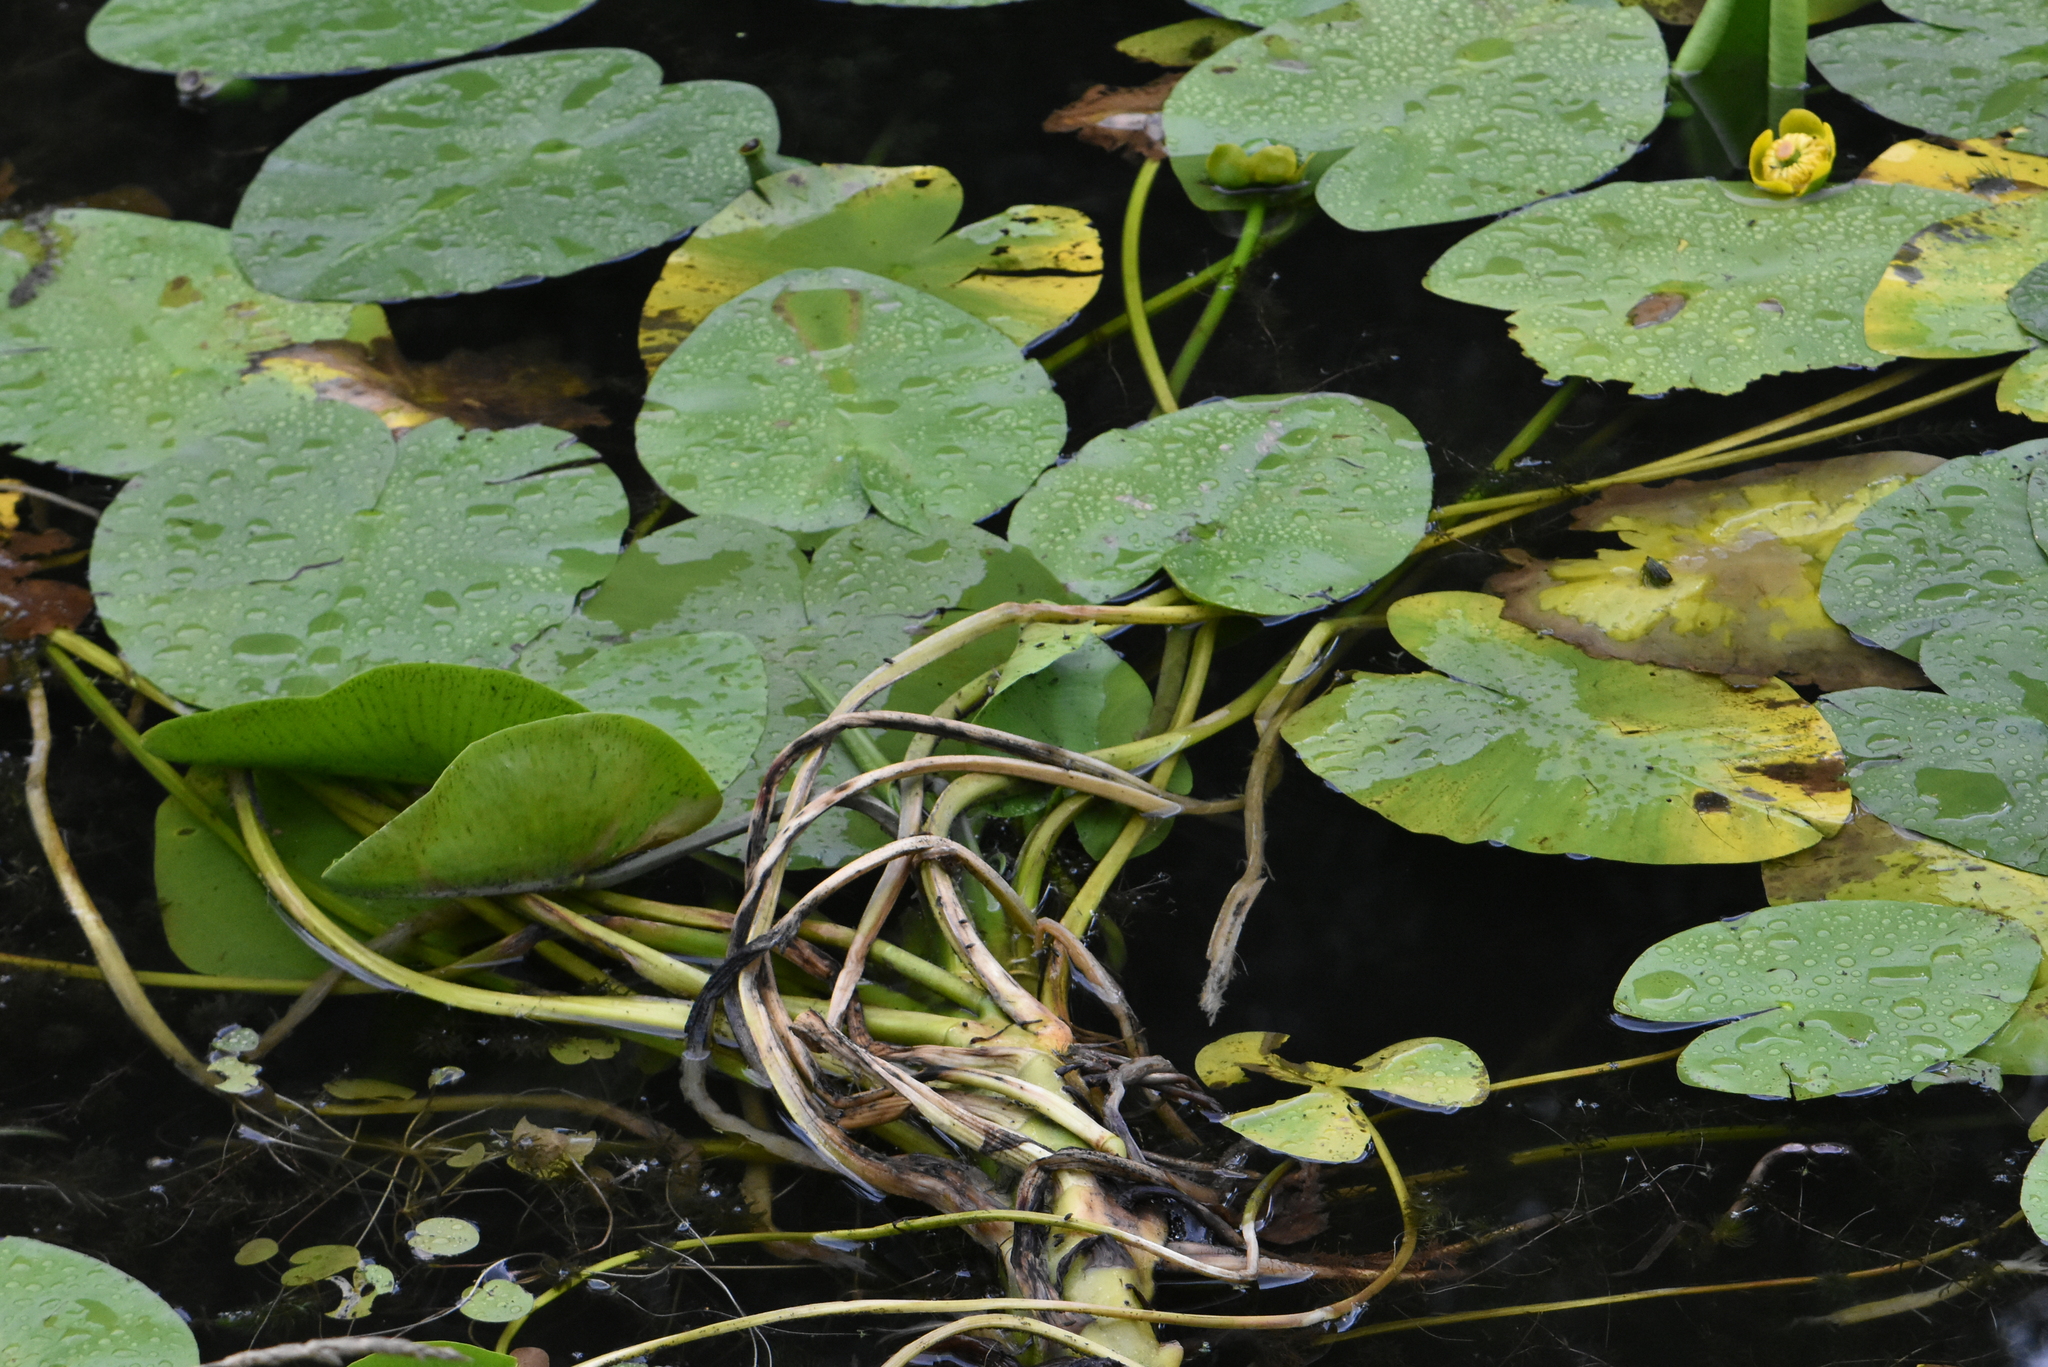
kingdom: Plantae
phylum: Tracheophyta
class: Magnoliopsida
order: Nymphaeales
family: Nymphaeaceae
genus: Nuphar
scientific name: Nuphar lutea
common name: Yellow water-lily
